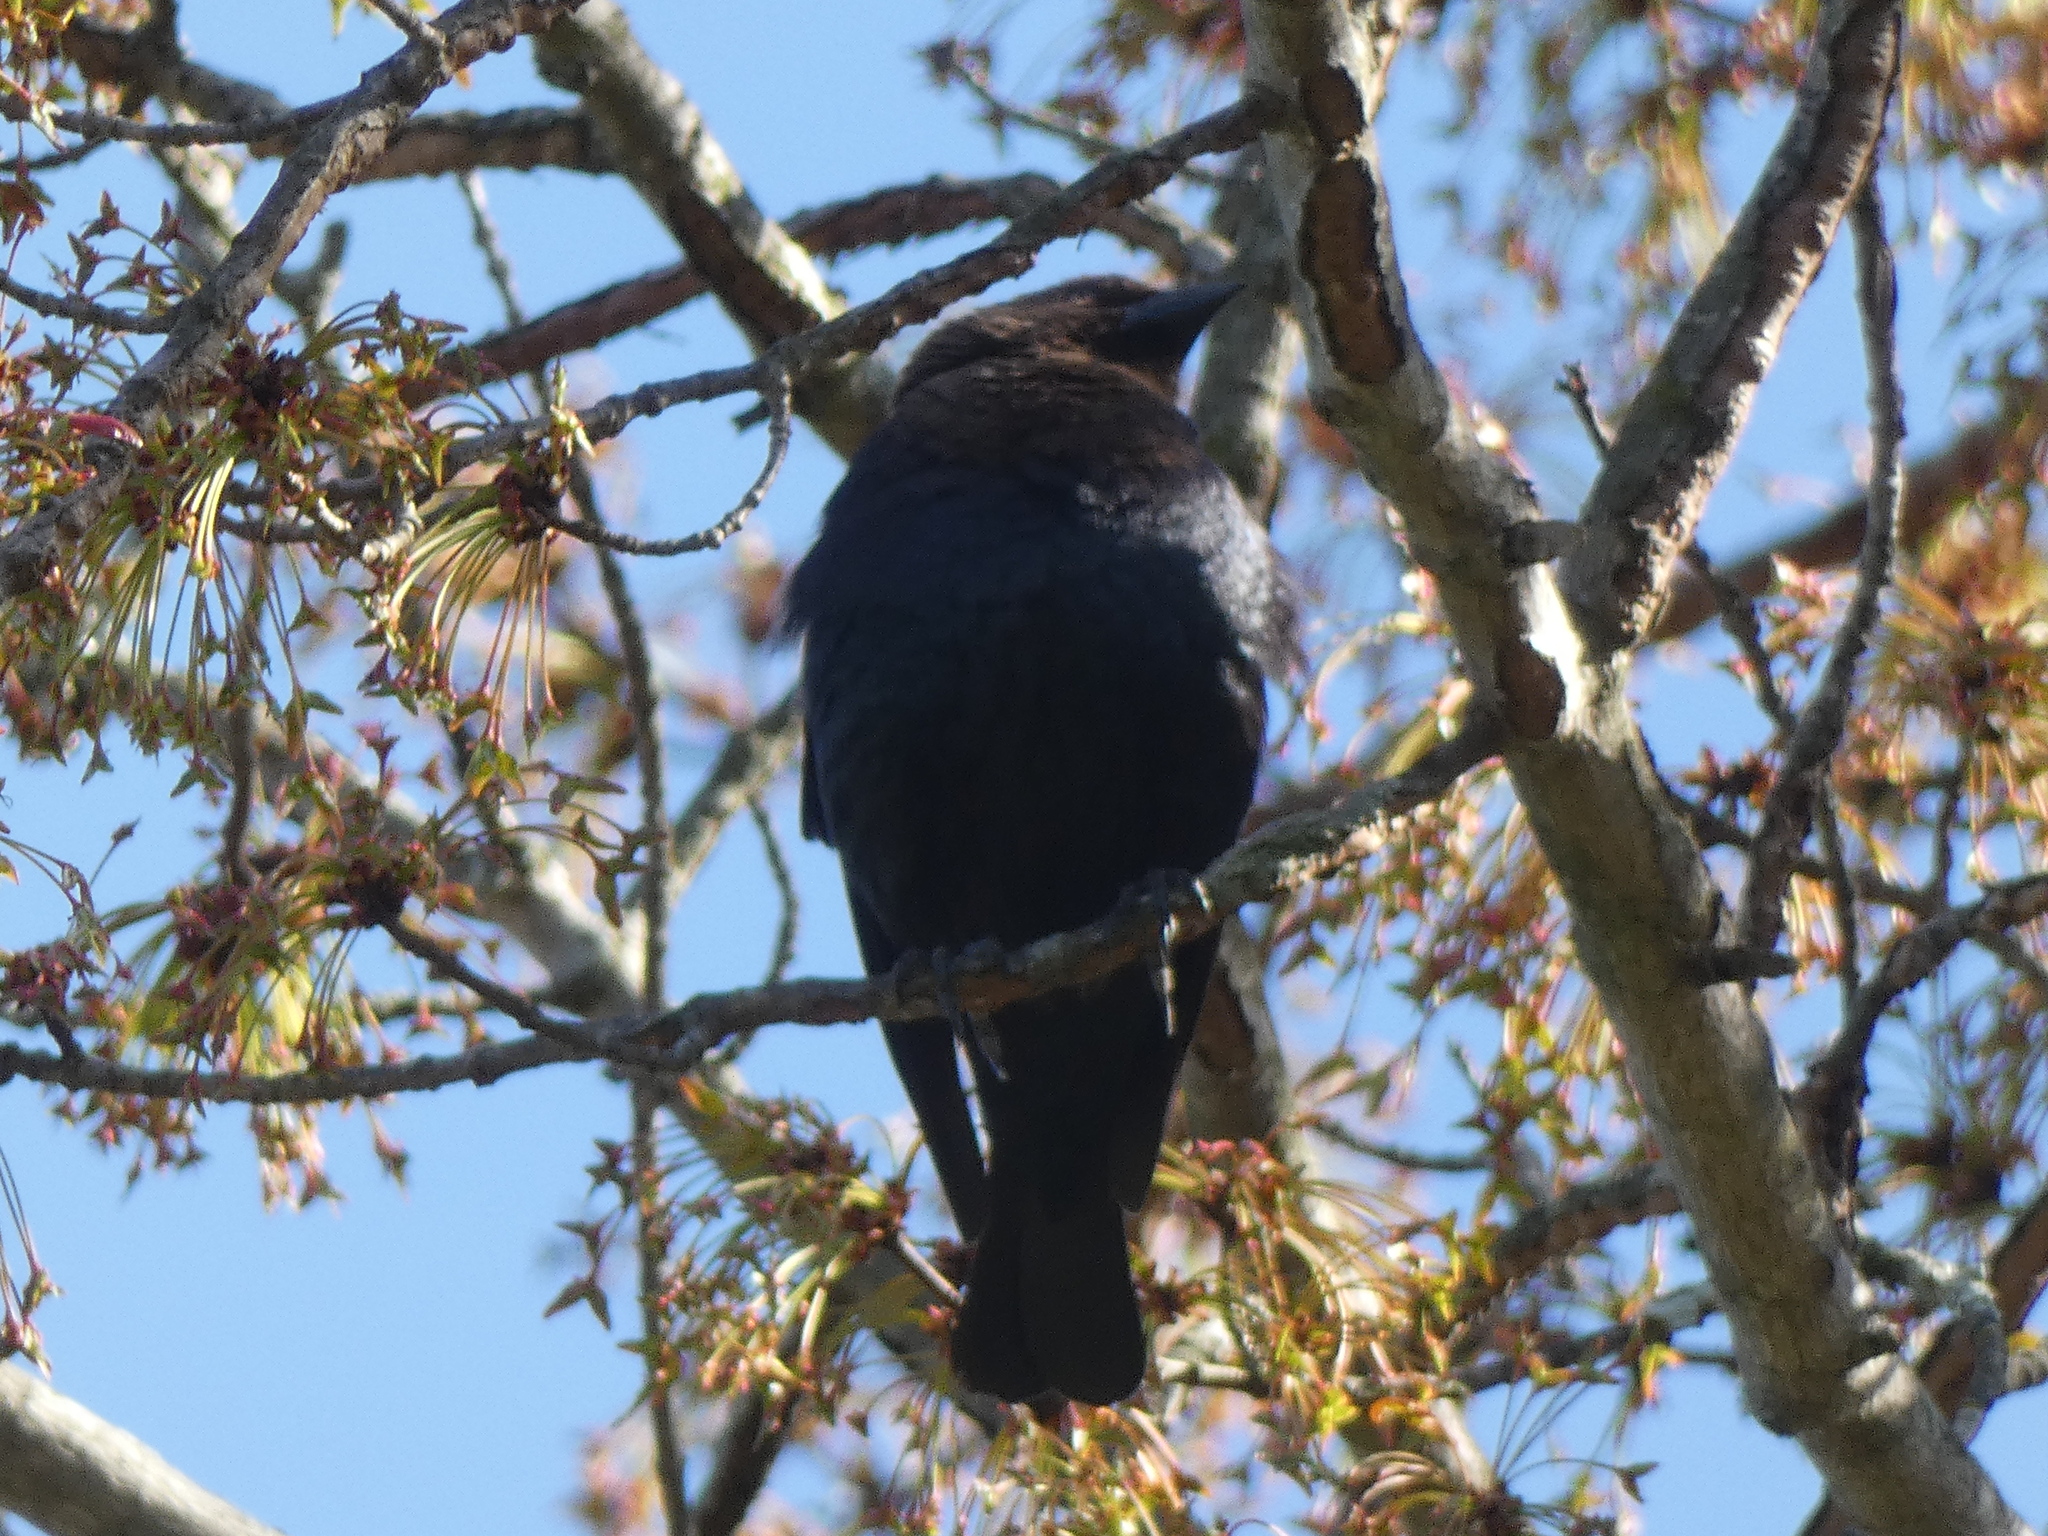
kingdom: Animalia
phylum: Chordata
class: Aves
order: Passeriformes
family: Icteridae
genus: Molothrus
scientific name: Molothrus ater
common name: Brown-headed cowbird
